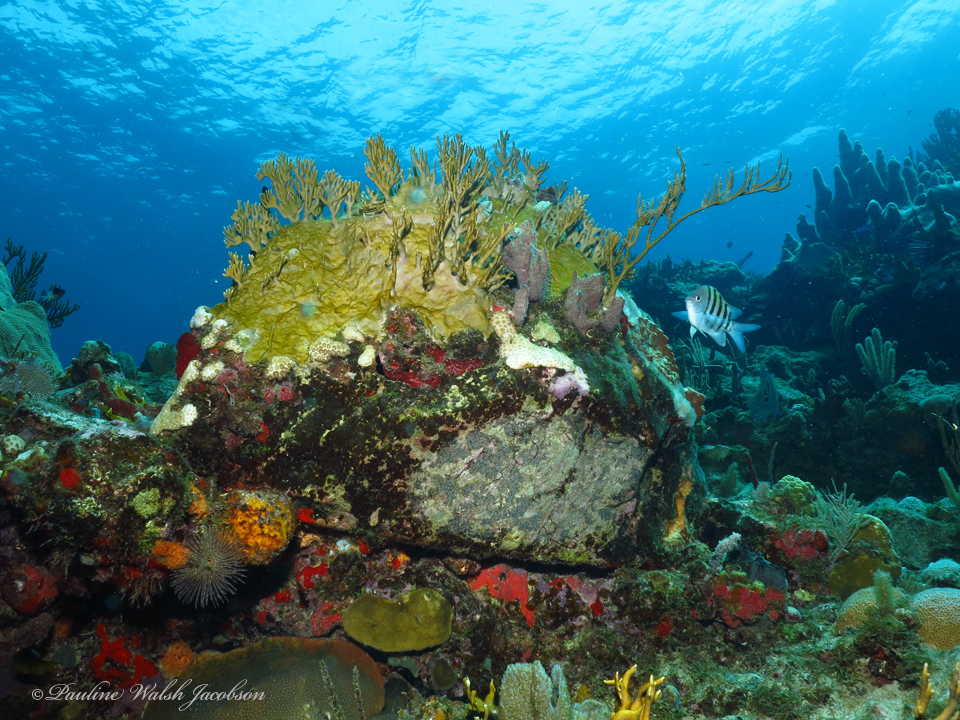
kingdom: Animalia
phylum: Chordata
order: Perciformes
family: Pomacentridae
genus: Abudefduf
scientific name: Abudefduf saxatilis
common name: Sergeant major
